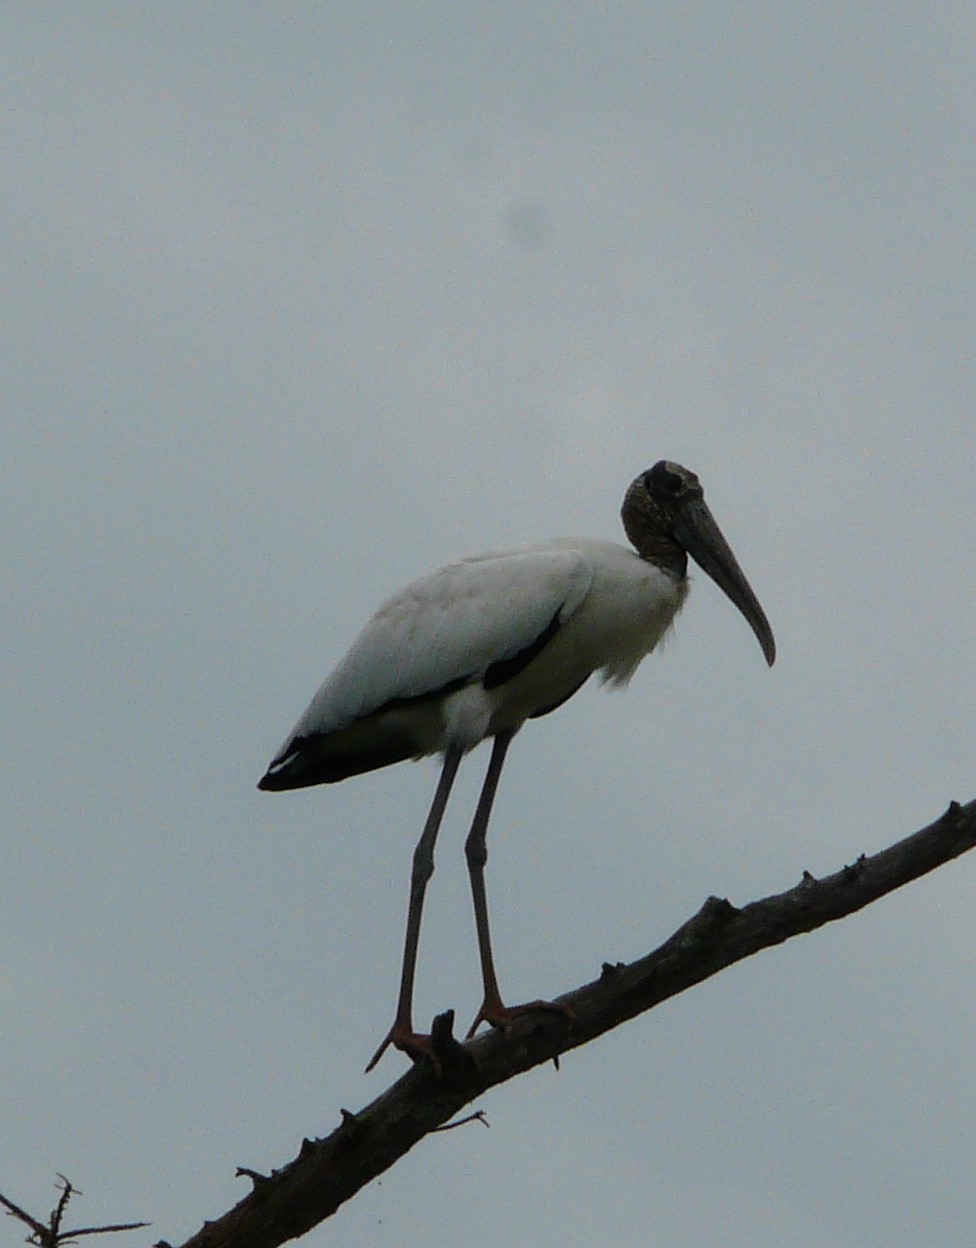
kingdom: Animalia
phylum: Chordata
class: Aves
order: Ciconiiformes
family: Ciconiidae
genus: Mycteria
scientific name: Mycteria americana
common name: Wood stork
